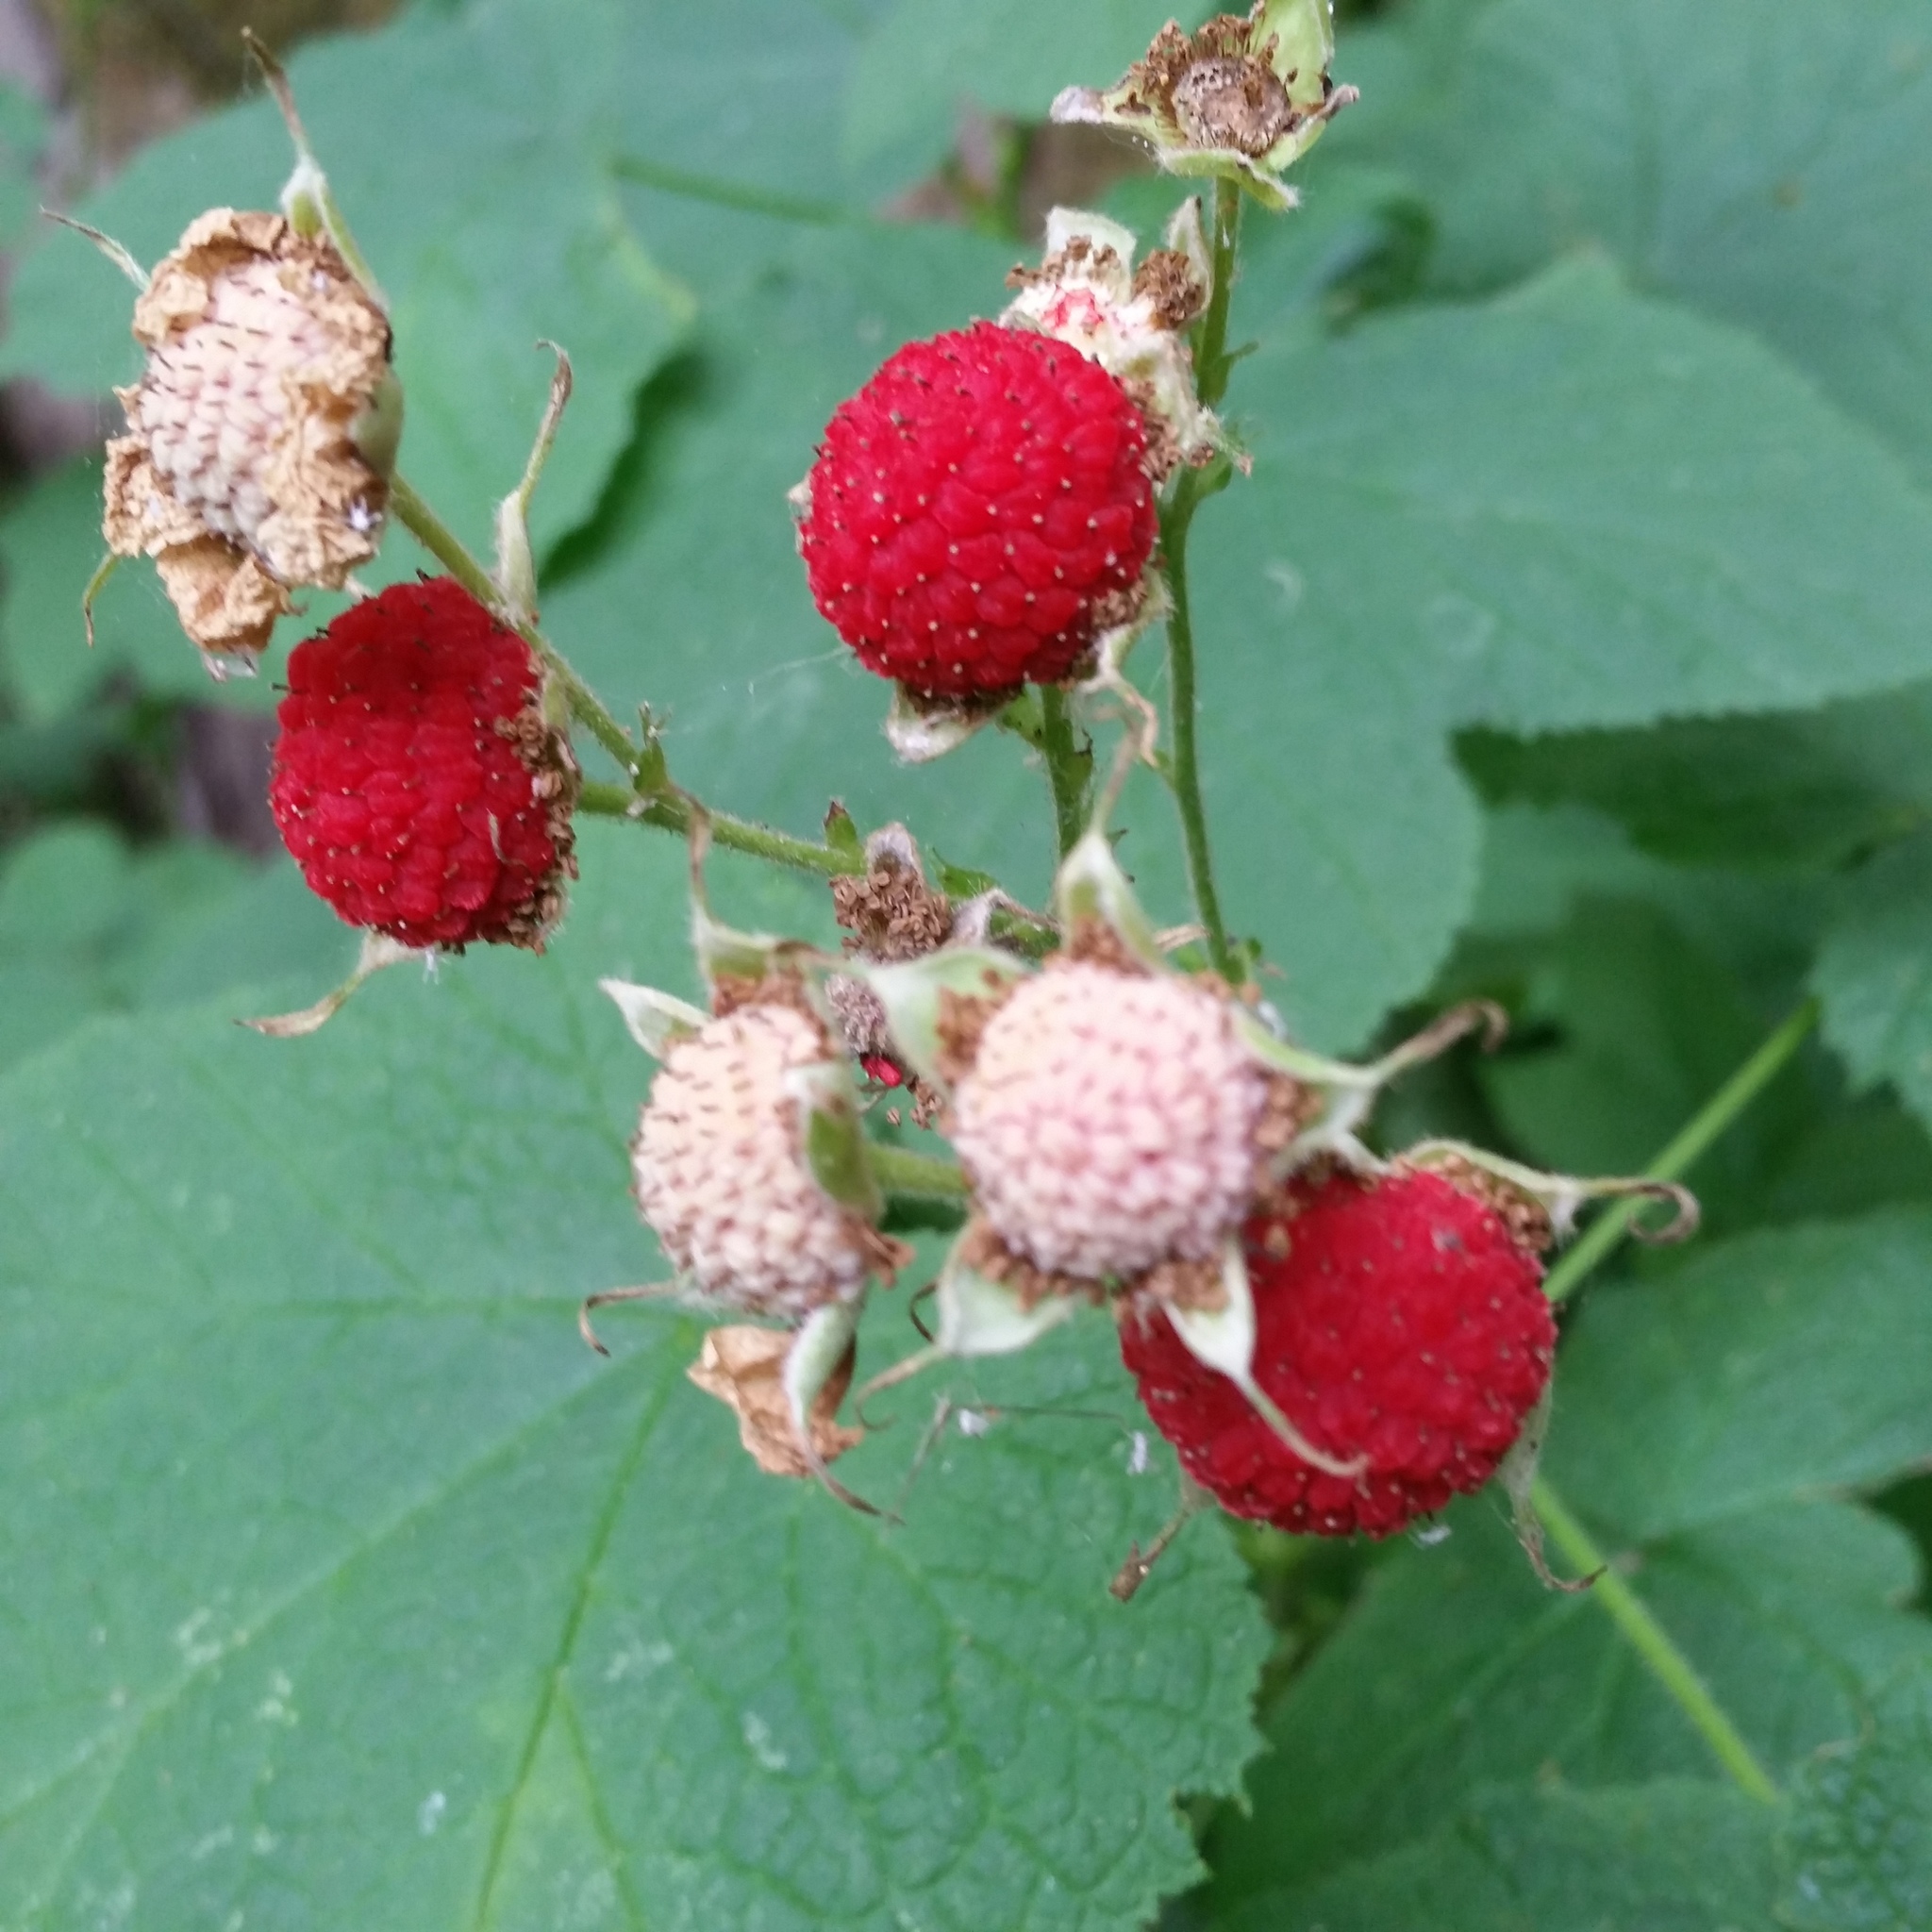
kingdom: Plantae
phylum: Tracheophyta
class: Magnoliopsida
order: Rosales
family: Rosaceae
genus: Rubus
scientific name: Rubus parviflorus
